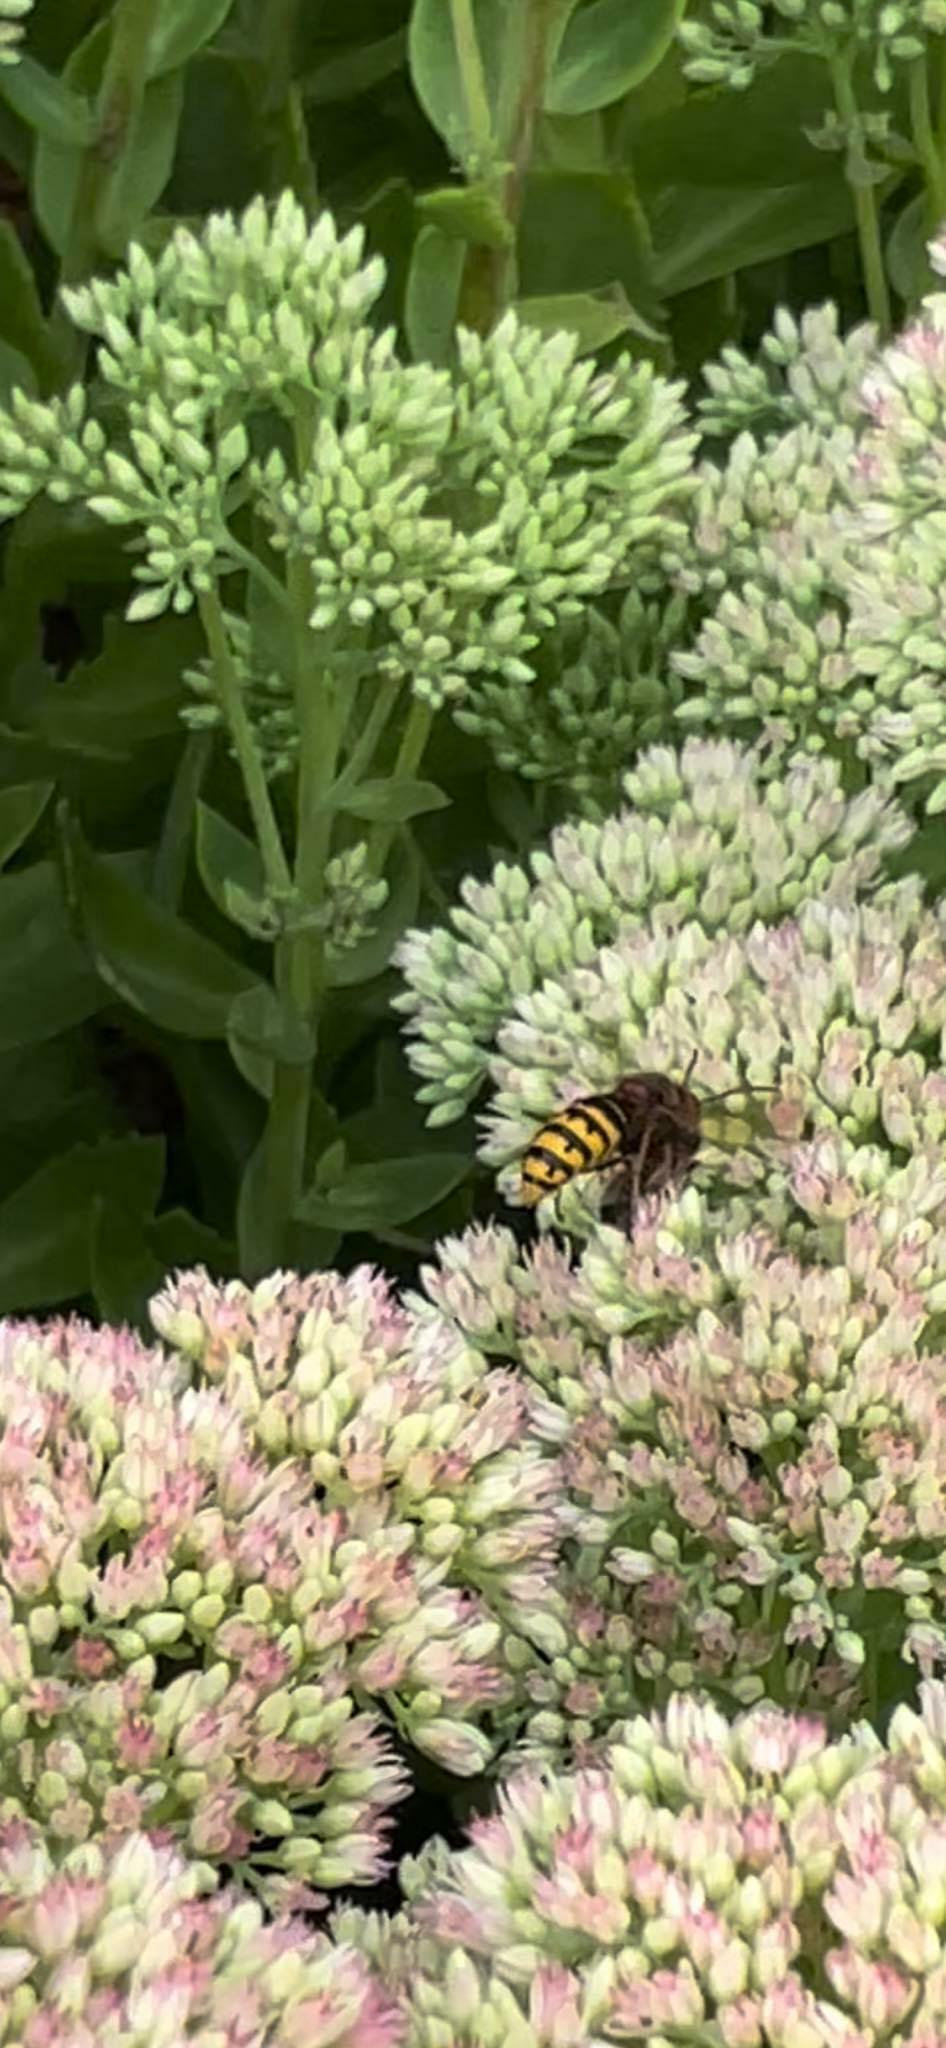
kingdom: Animalia
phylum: Arthropoda
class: Insecta
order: Hymenoptera
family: Vespidae
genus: Vespa
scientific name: Vespa crabro
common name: Hornet
